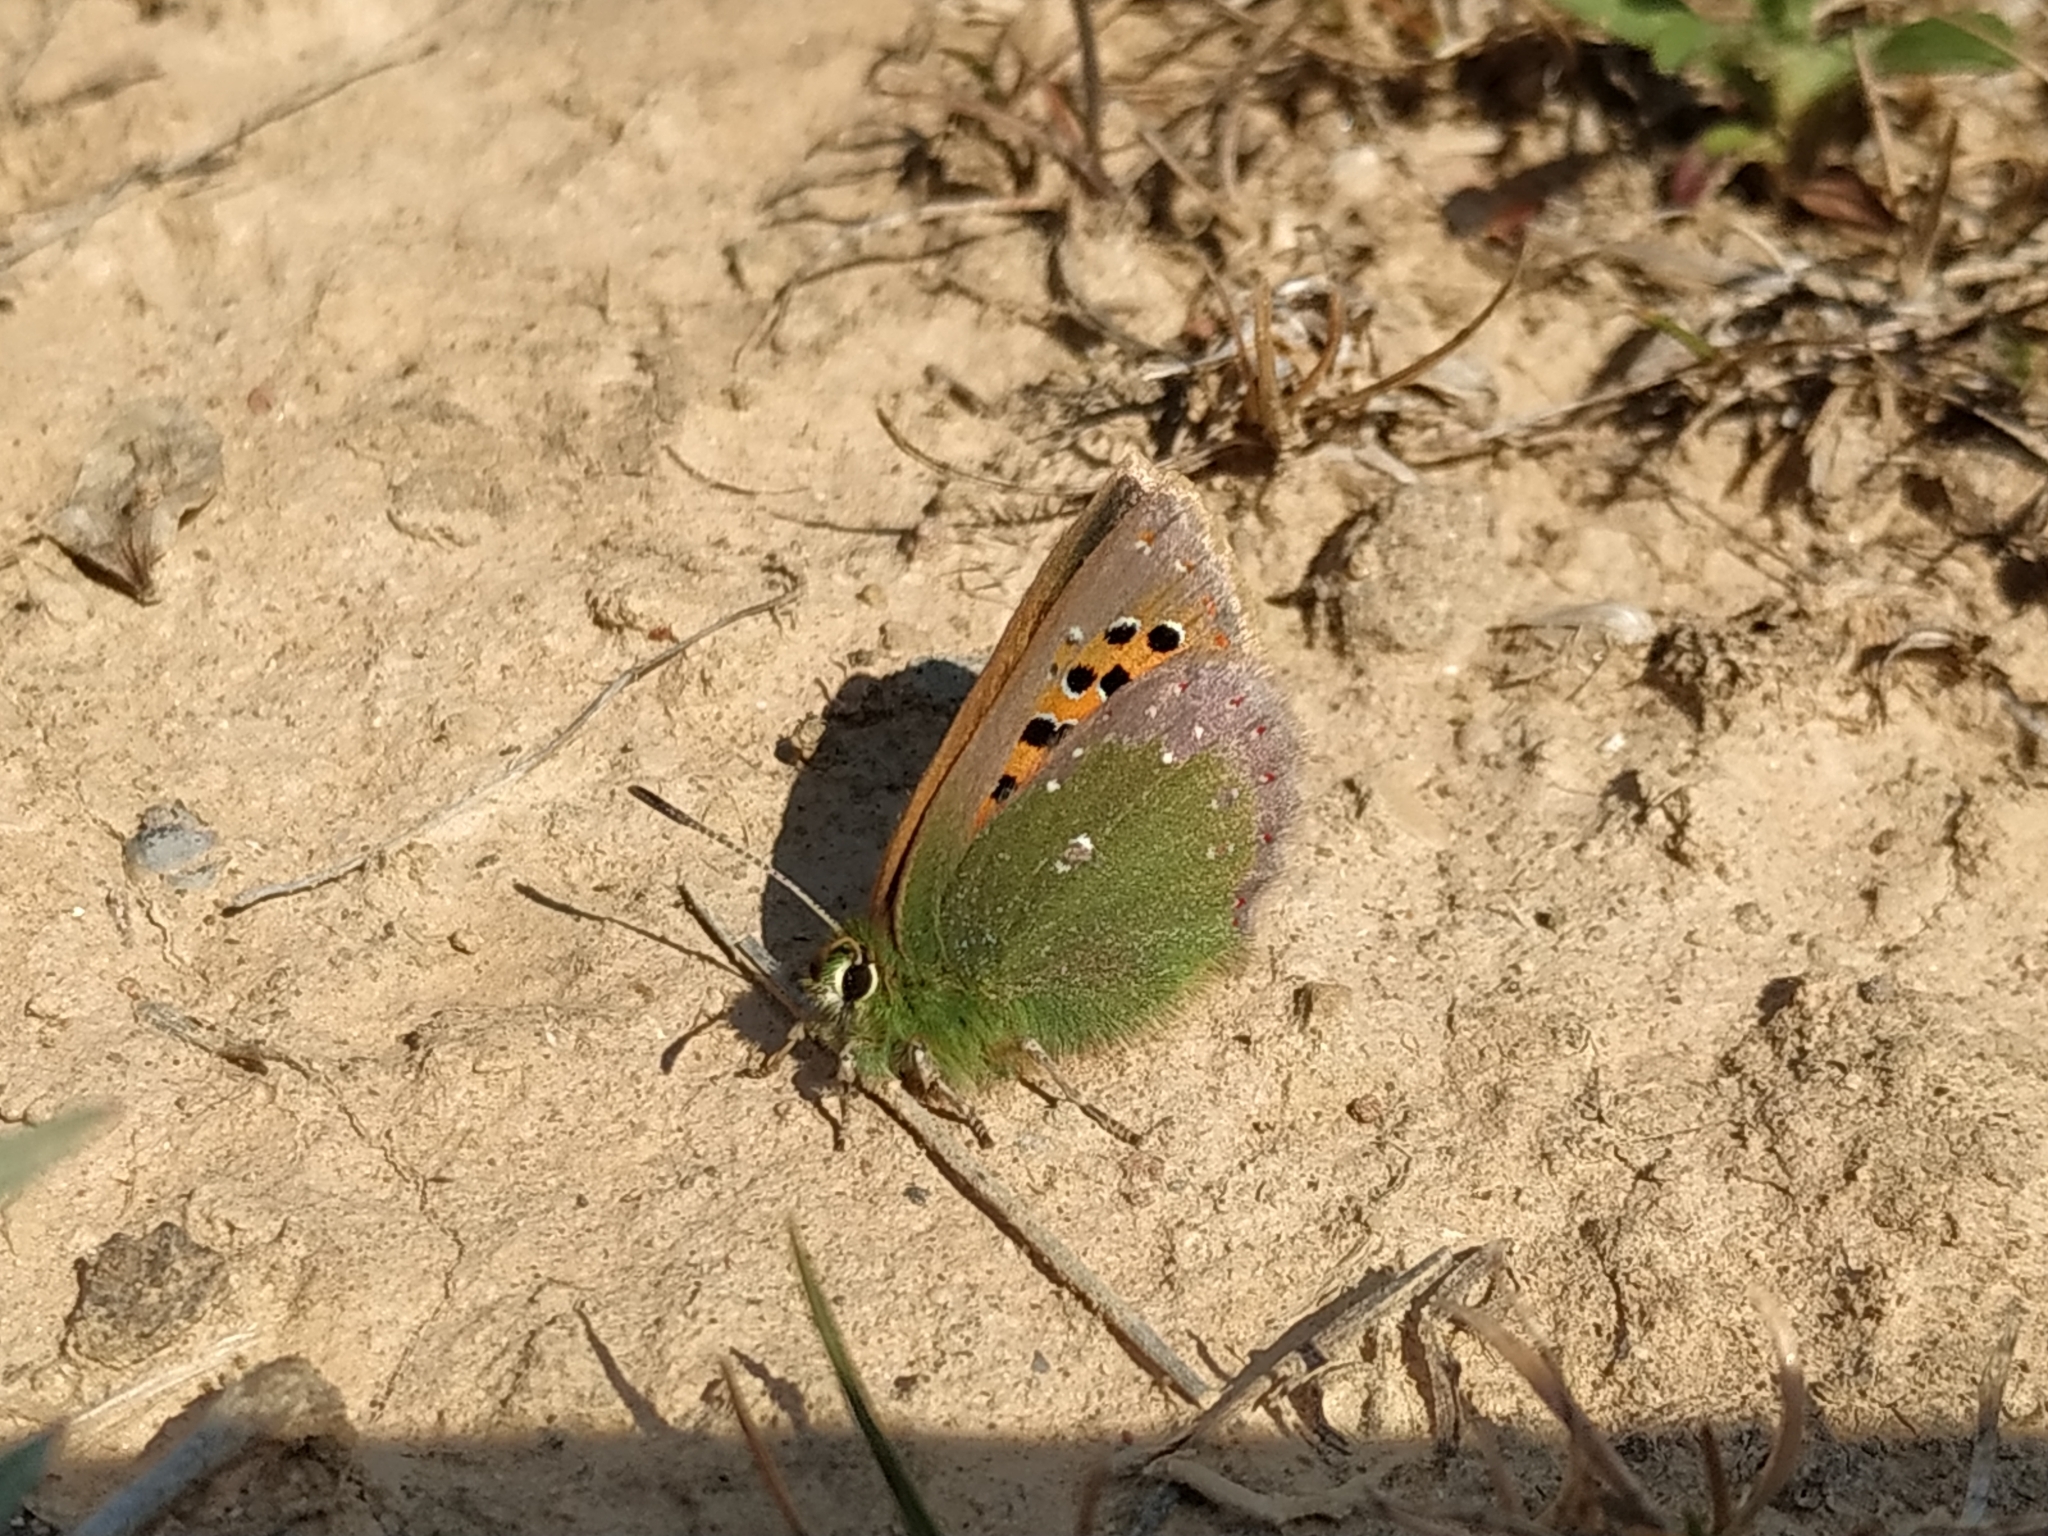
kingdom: Animalia
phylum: Arthropoda
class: Insecta
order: Lepidoptera
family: Lycaenidae
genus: Tomares
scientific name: Tomares ballus
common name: Provence hairstreak
